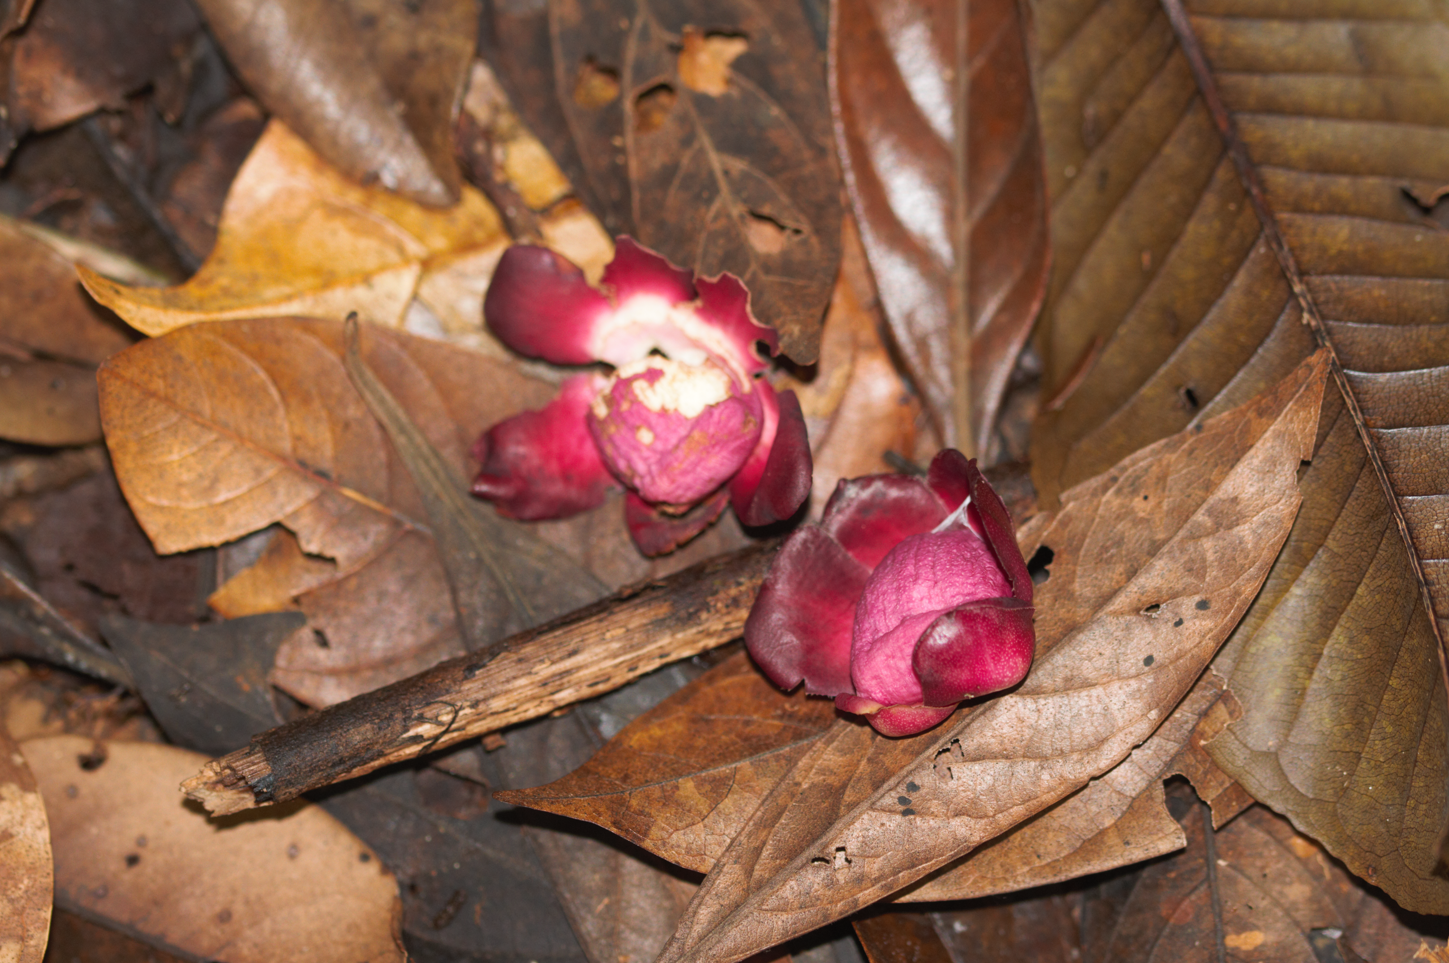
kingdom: Plantae
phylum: Tracheophyta
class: Magnoliopsida
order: Ericales
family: Lecythidaceae
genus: Corythophora
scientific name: Corythophora amapaensis
